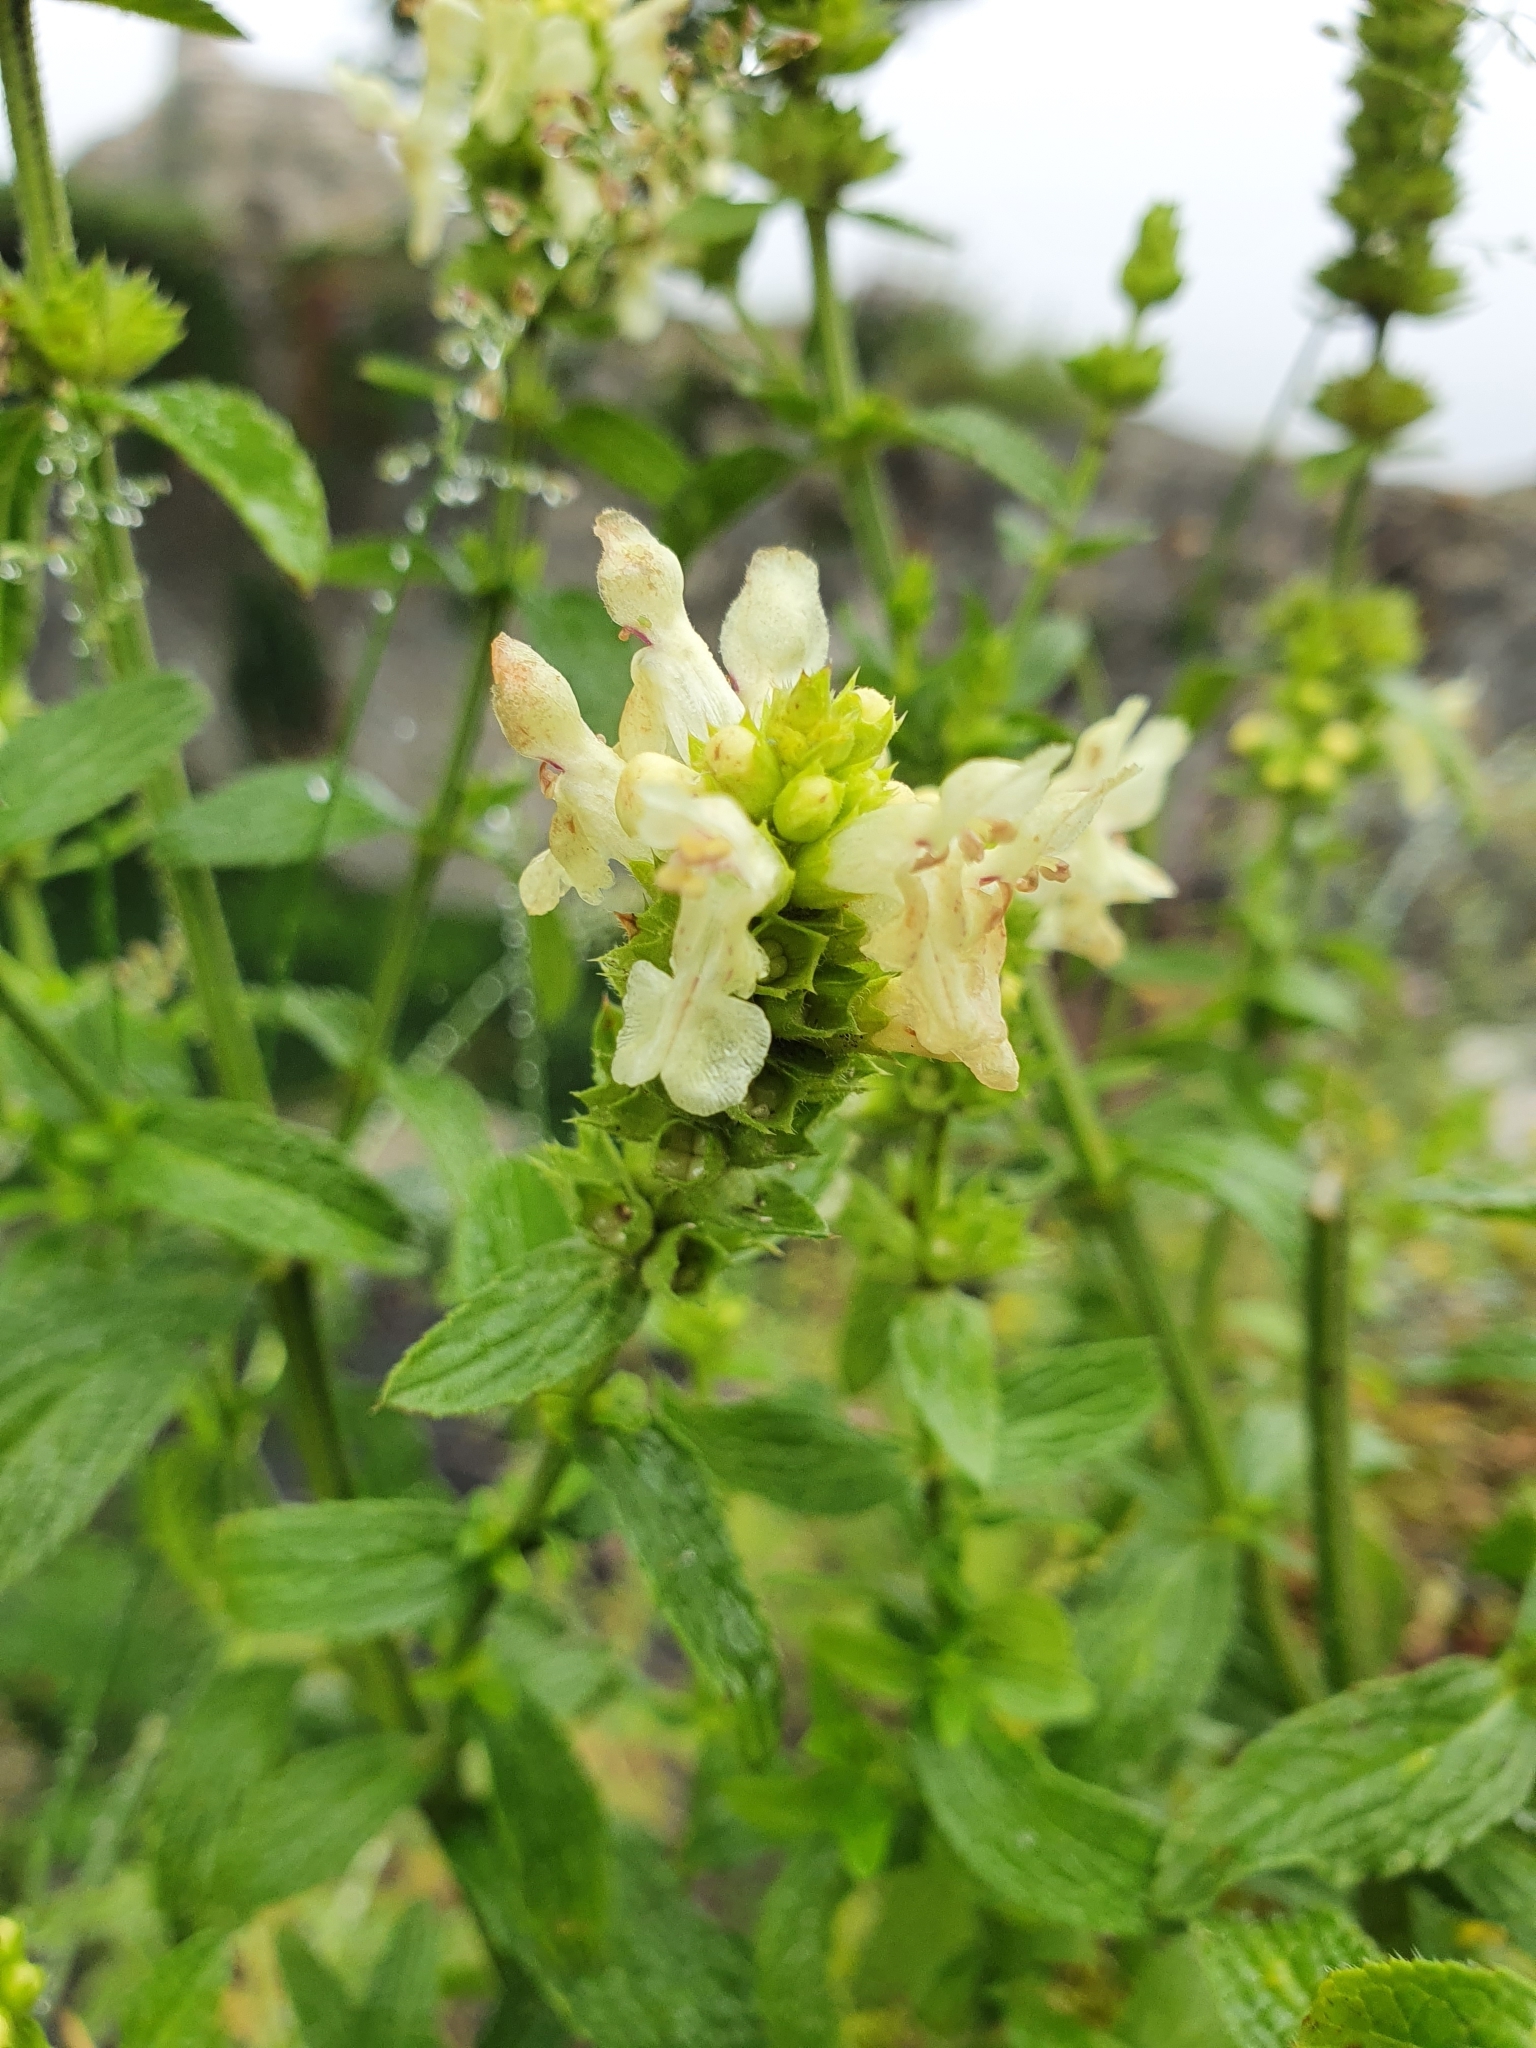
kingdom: Plantae
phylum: Tracheophyta
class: Magnoliopsida
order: Lamiales
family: Lamiaceae
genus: Stachys
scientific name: Stachys recta
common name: Perennial yellow-woundwort
